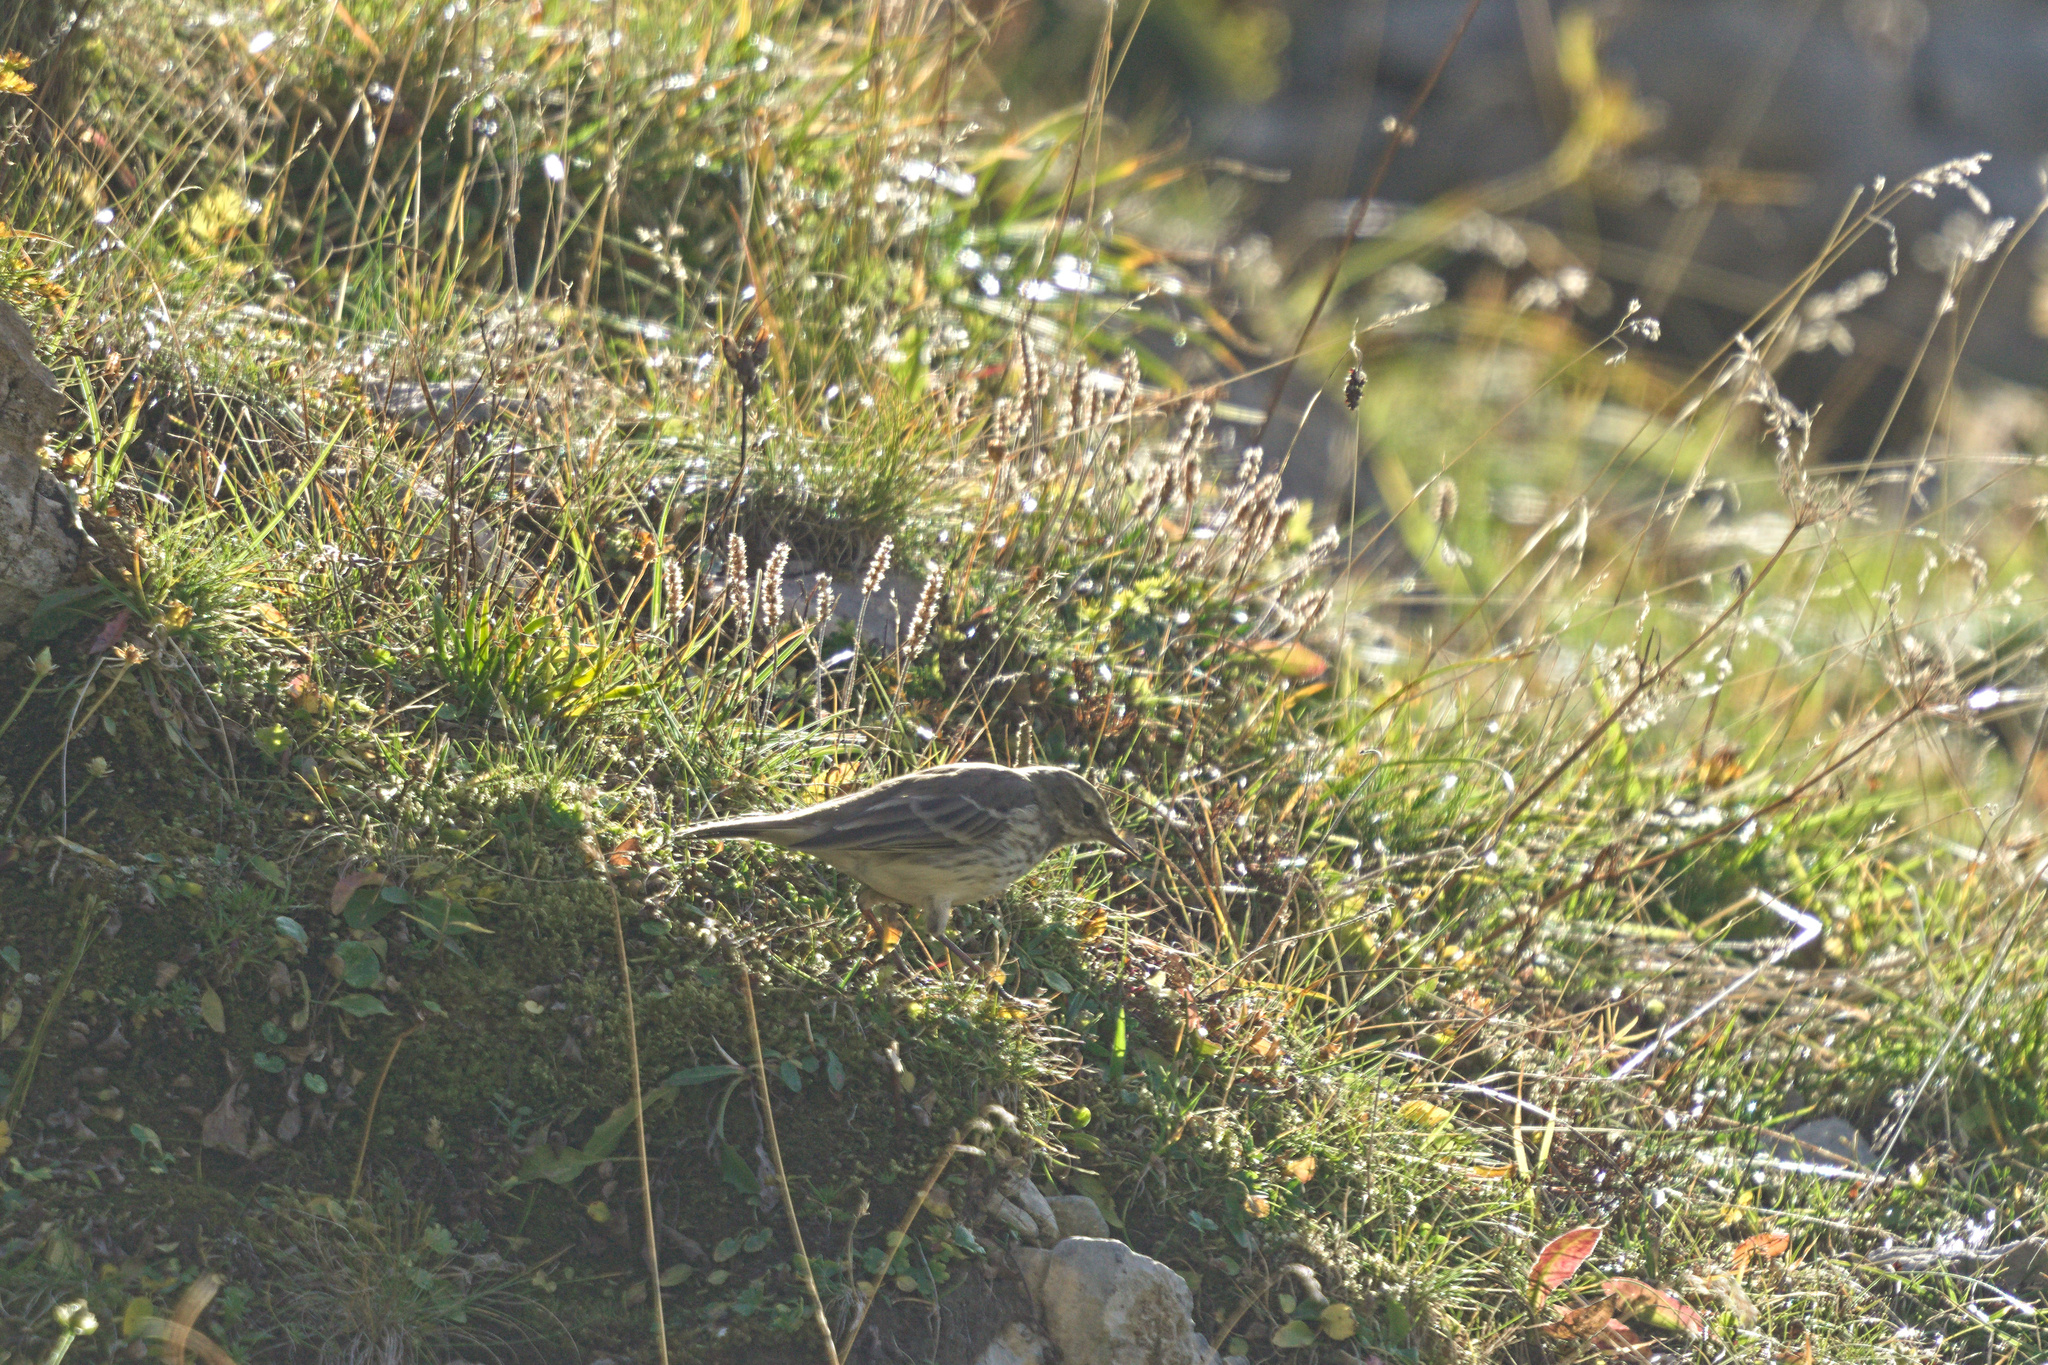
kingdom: Animalia
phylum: Chordata
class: Aves
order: Passeriformes
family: Motacillidae
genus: Anthus
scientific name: Anthus spinoletta
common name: Water pipit
